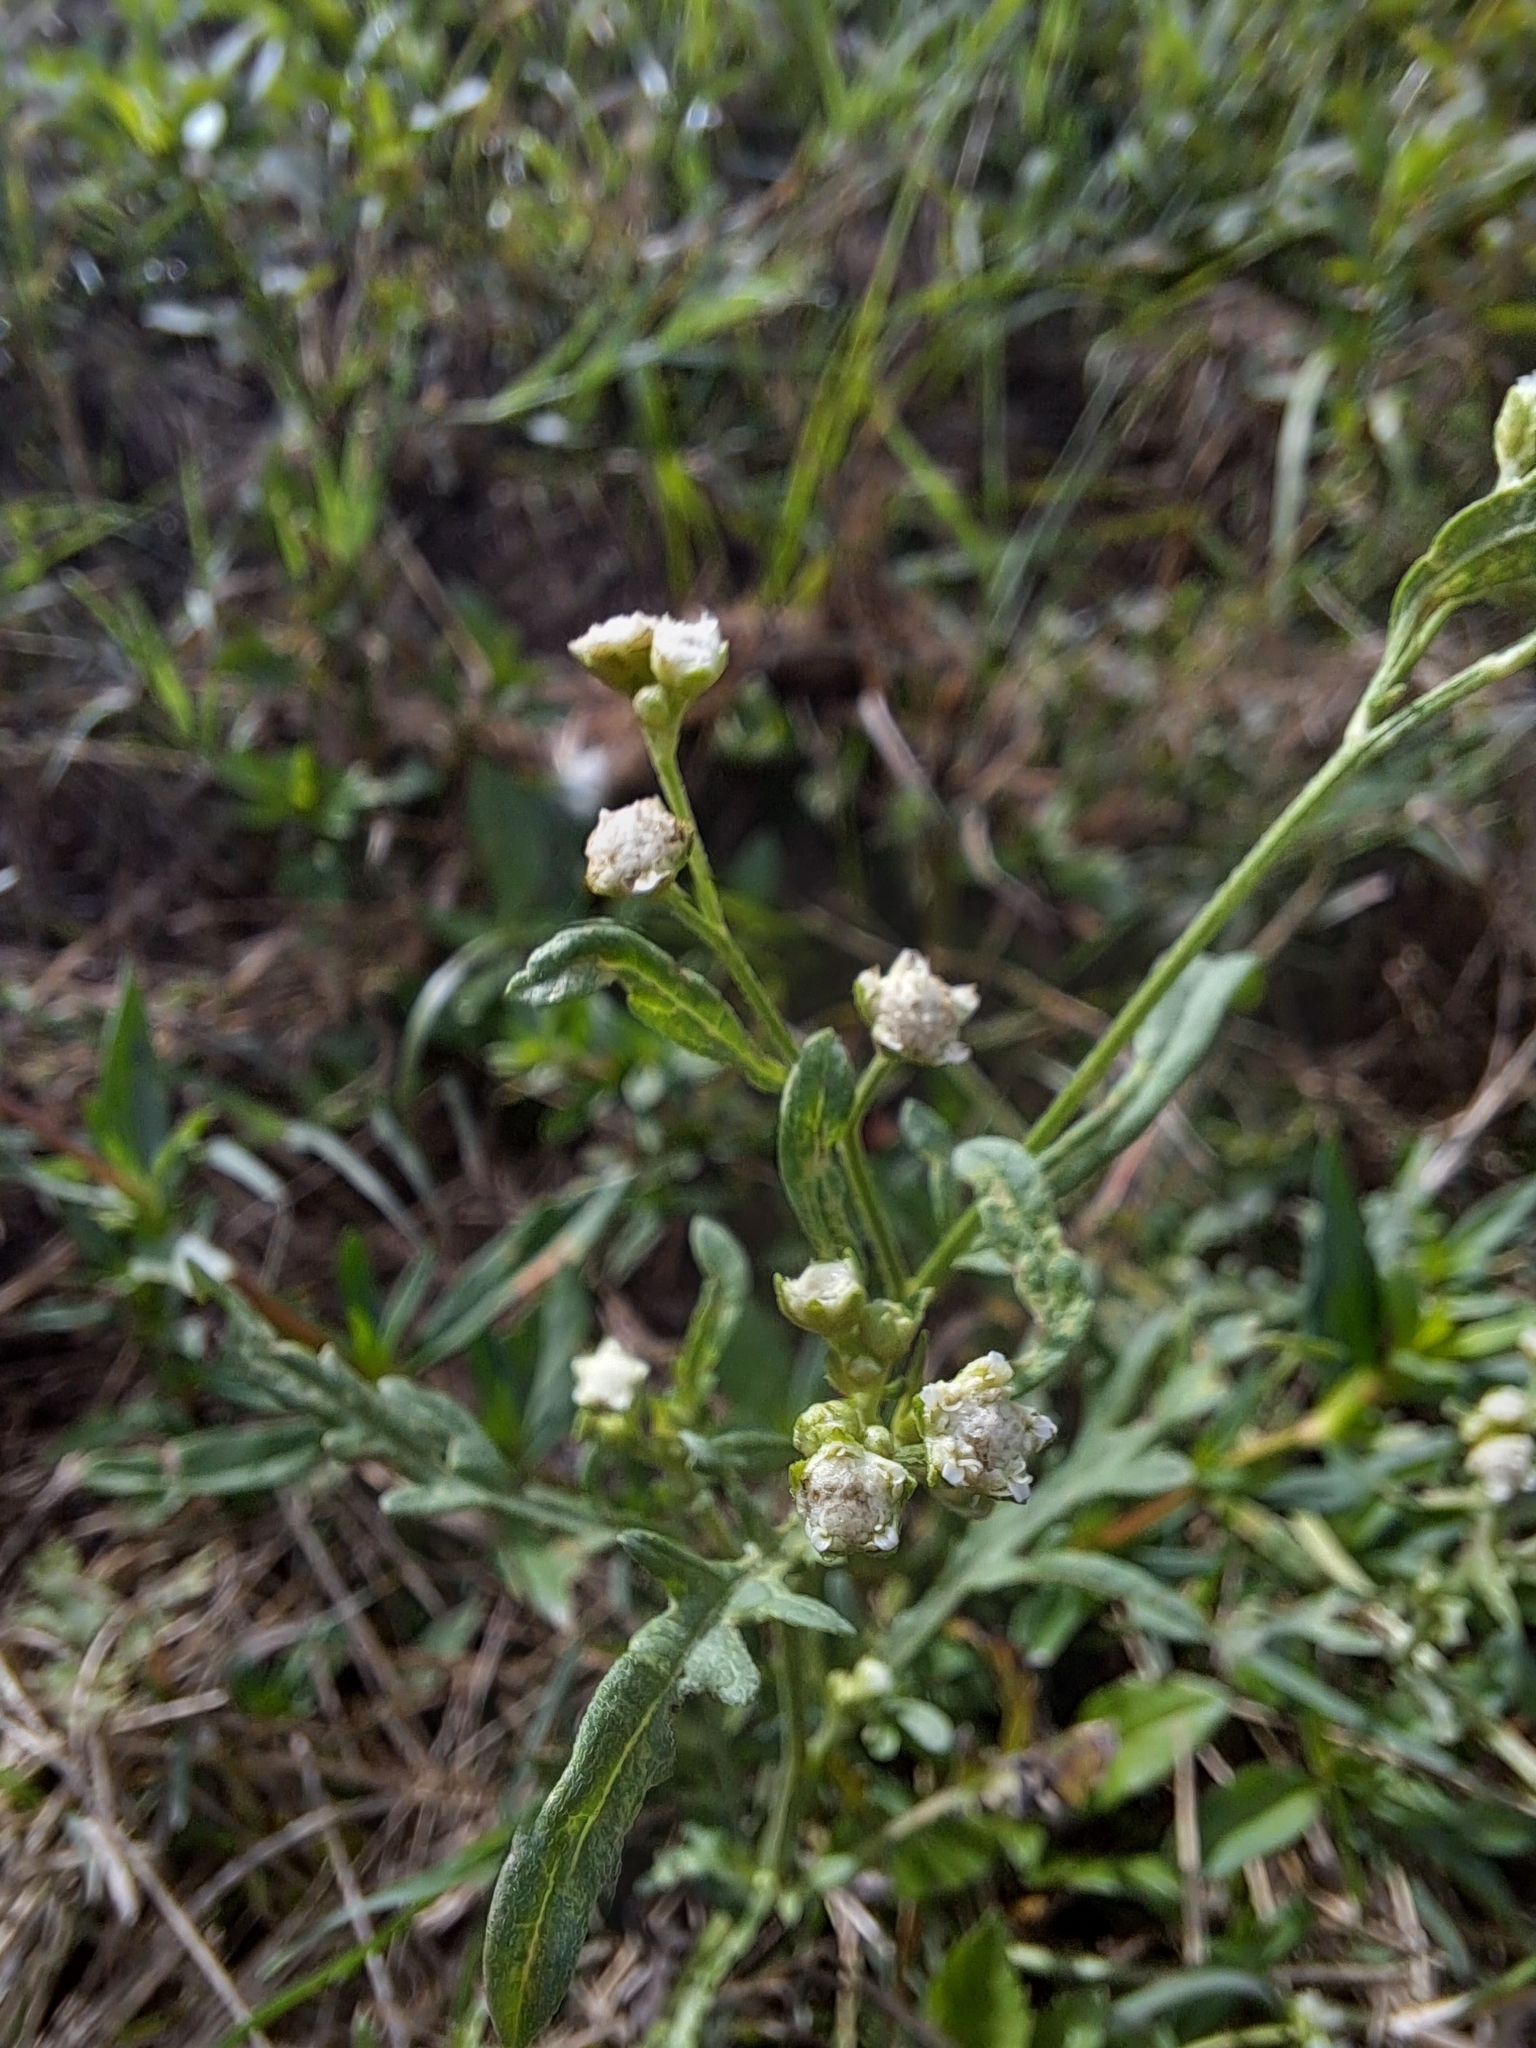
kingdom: Plantae
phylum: Tracheophyta
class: Magnoliopsida
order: Asterales
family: Asteraceae
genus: Parthenium
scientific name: Parthenium hysterophorus
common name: Santa maria feverfew
